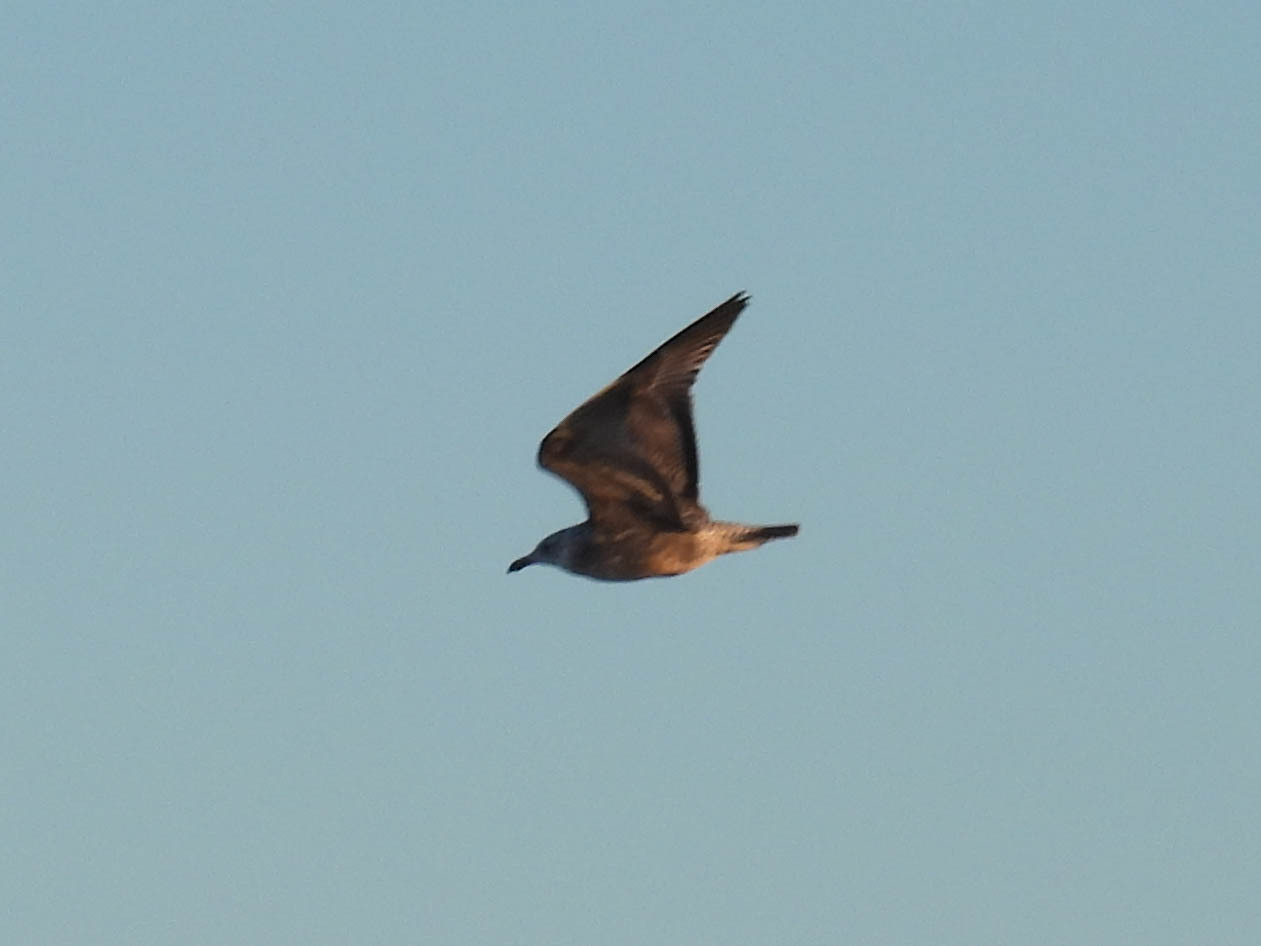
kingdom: Animalia
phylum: Chordata
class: Aves
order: Charadriiformes
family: Laridae
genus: Larus
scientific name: Larus argentatus
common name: Herring gull
